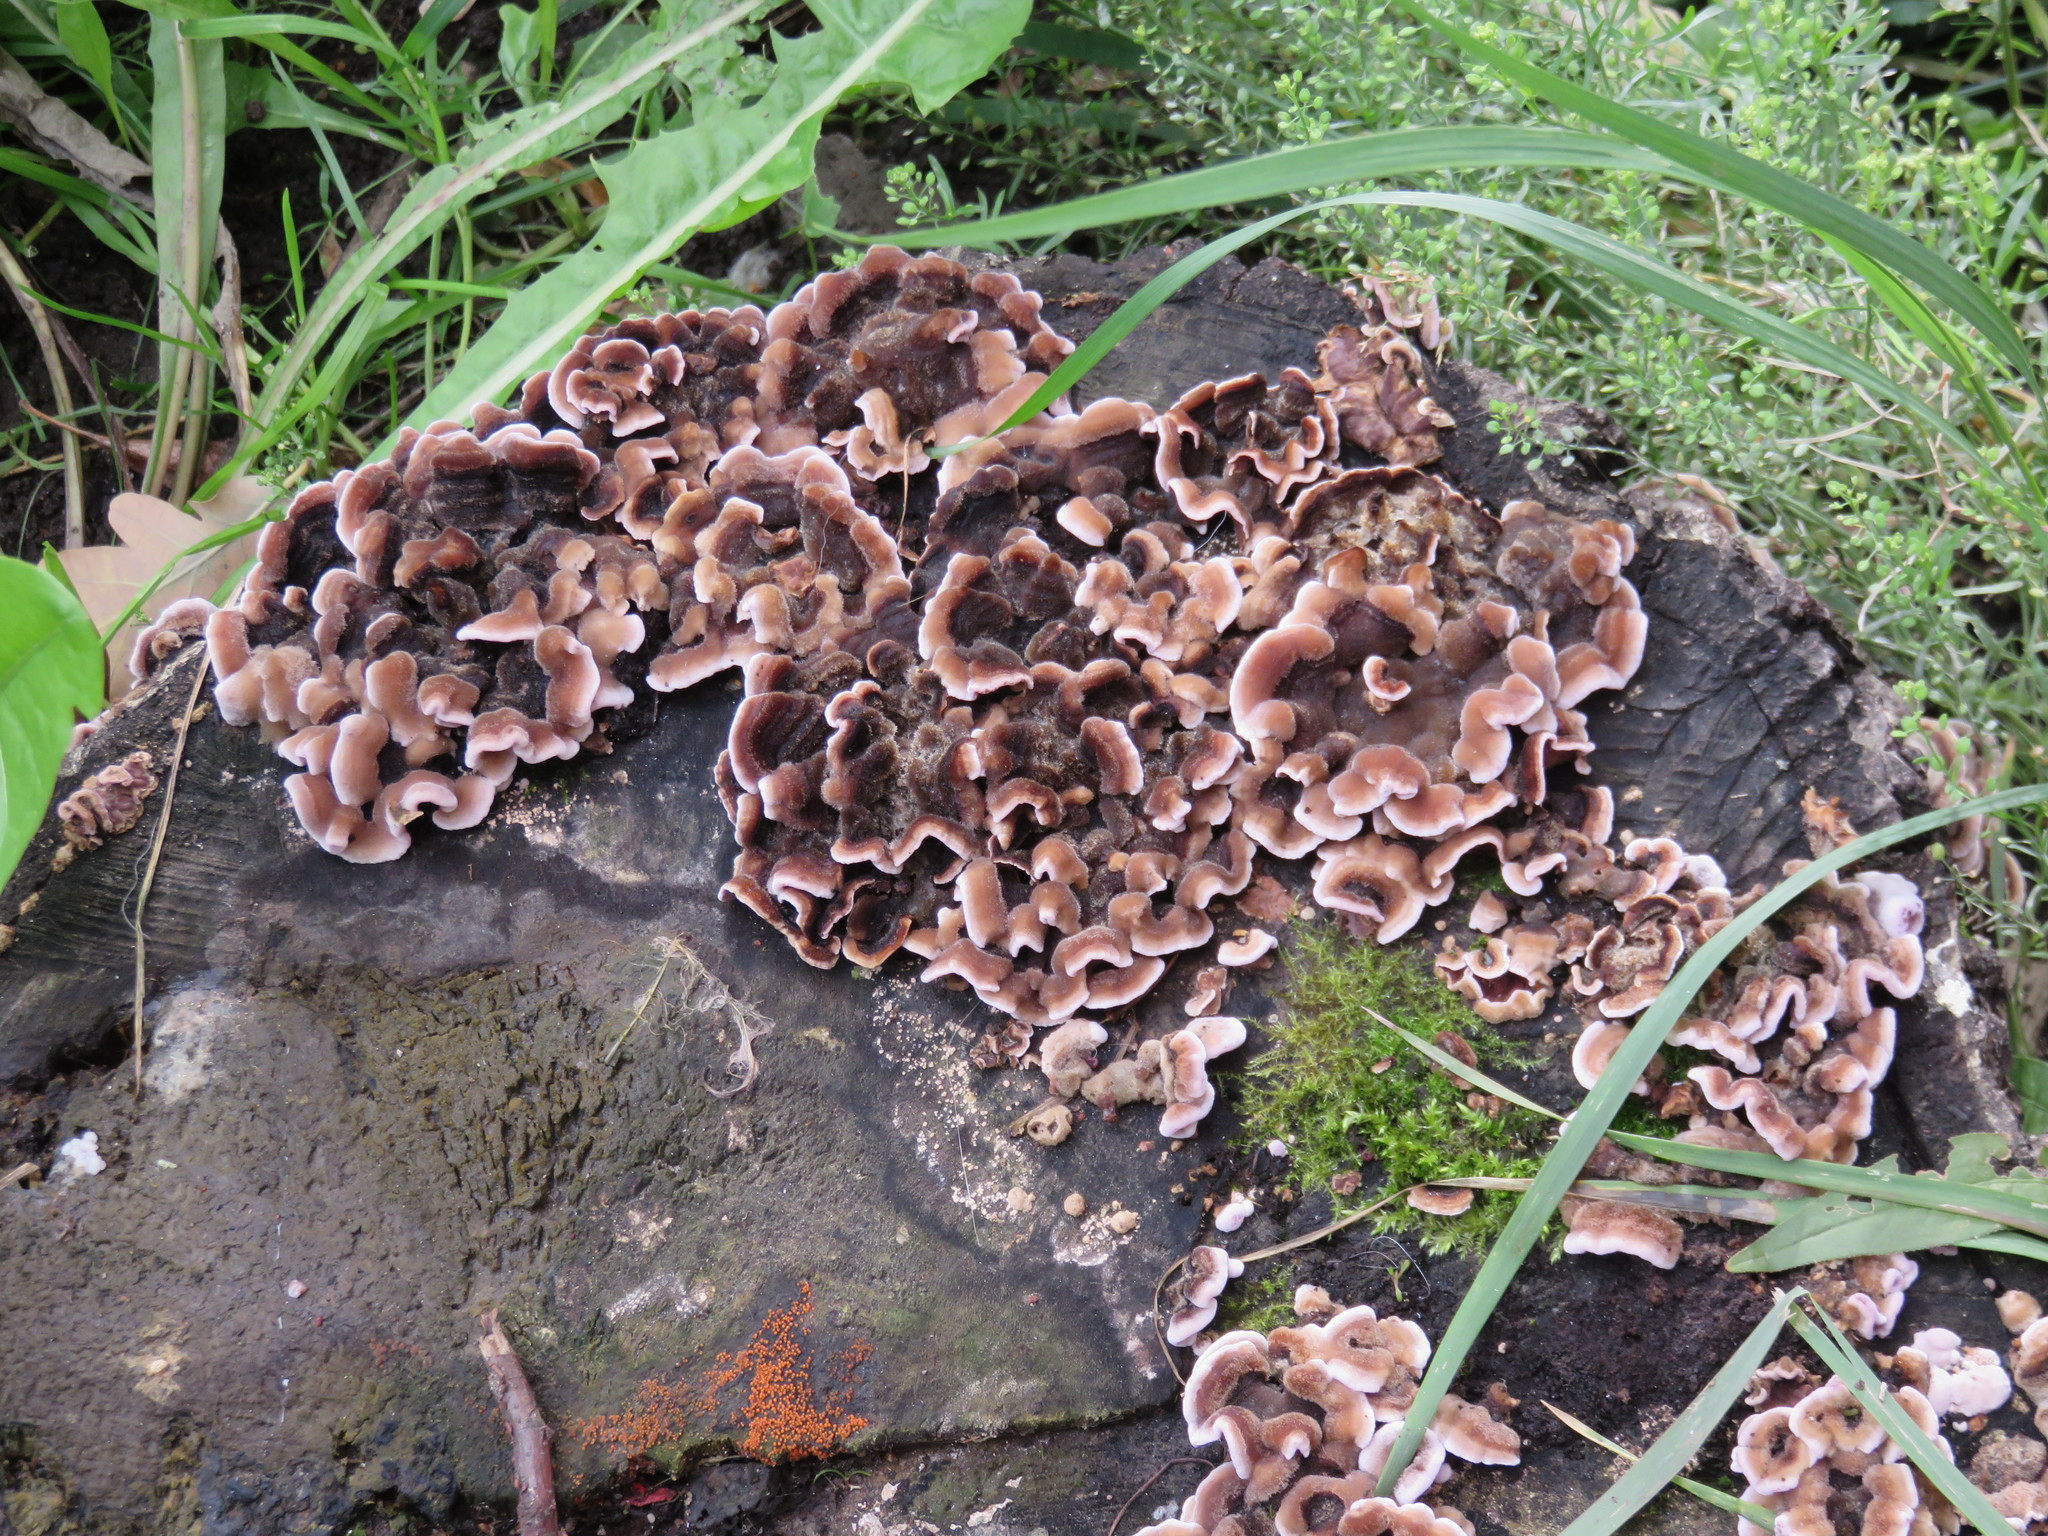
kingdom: Fungi
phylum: Basidiomycota
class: Agaricomycetes
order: Agaricales
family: Cyphellaceae
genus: Chondrostereum
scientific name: Chondrostereum purpureum
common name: Silver leaf disease
